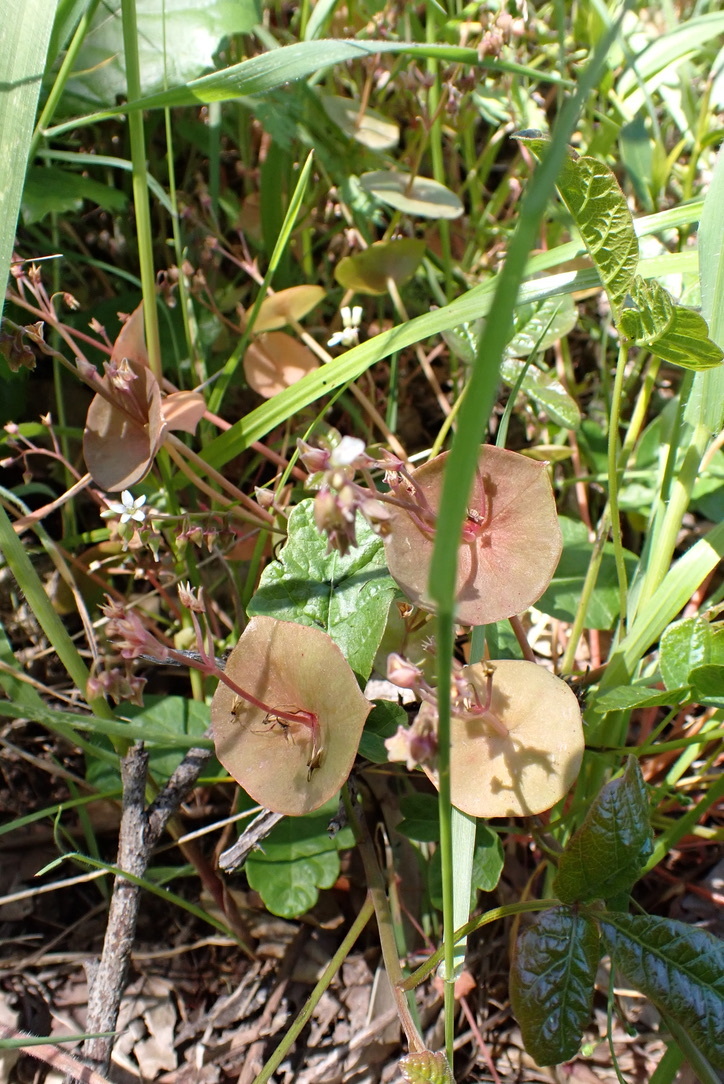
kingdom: Plantae
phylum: Tracheophyta
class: Magnoliopsida
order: Caryophyllales
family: Montiaceae
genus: Claytonia
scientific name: Claytonia perfoliata
